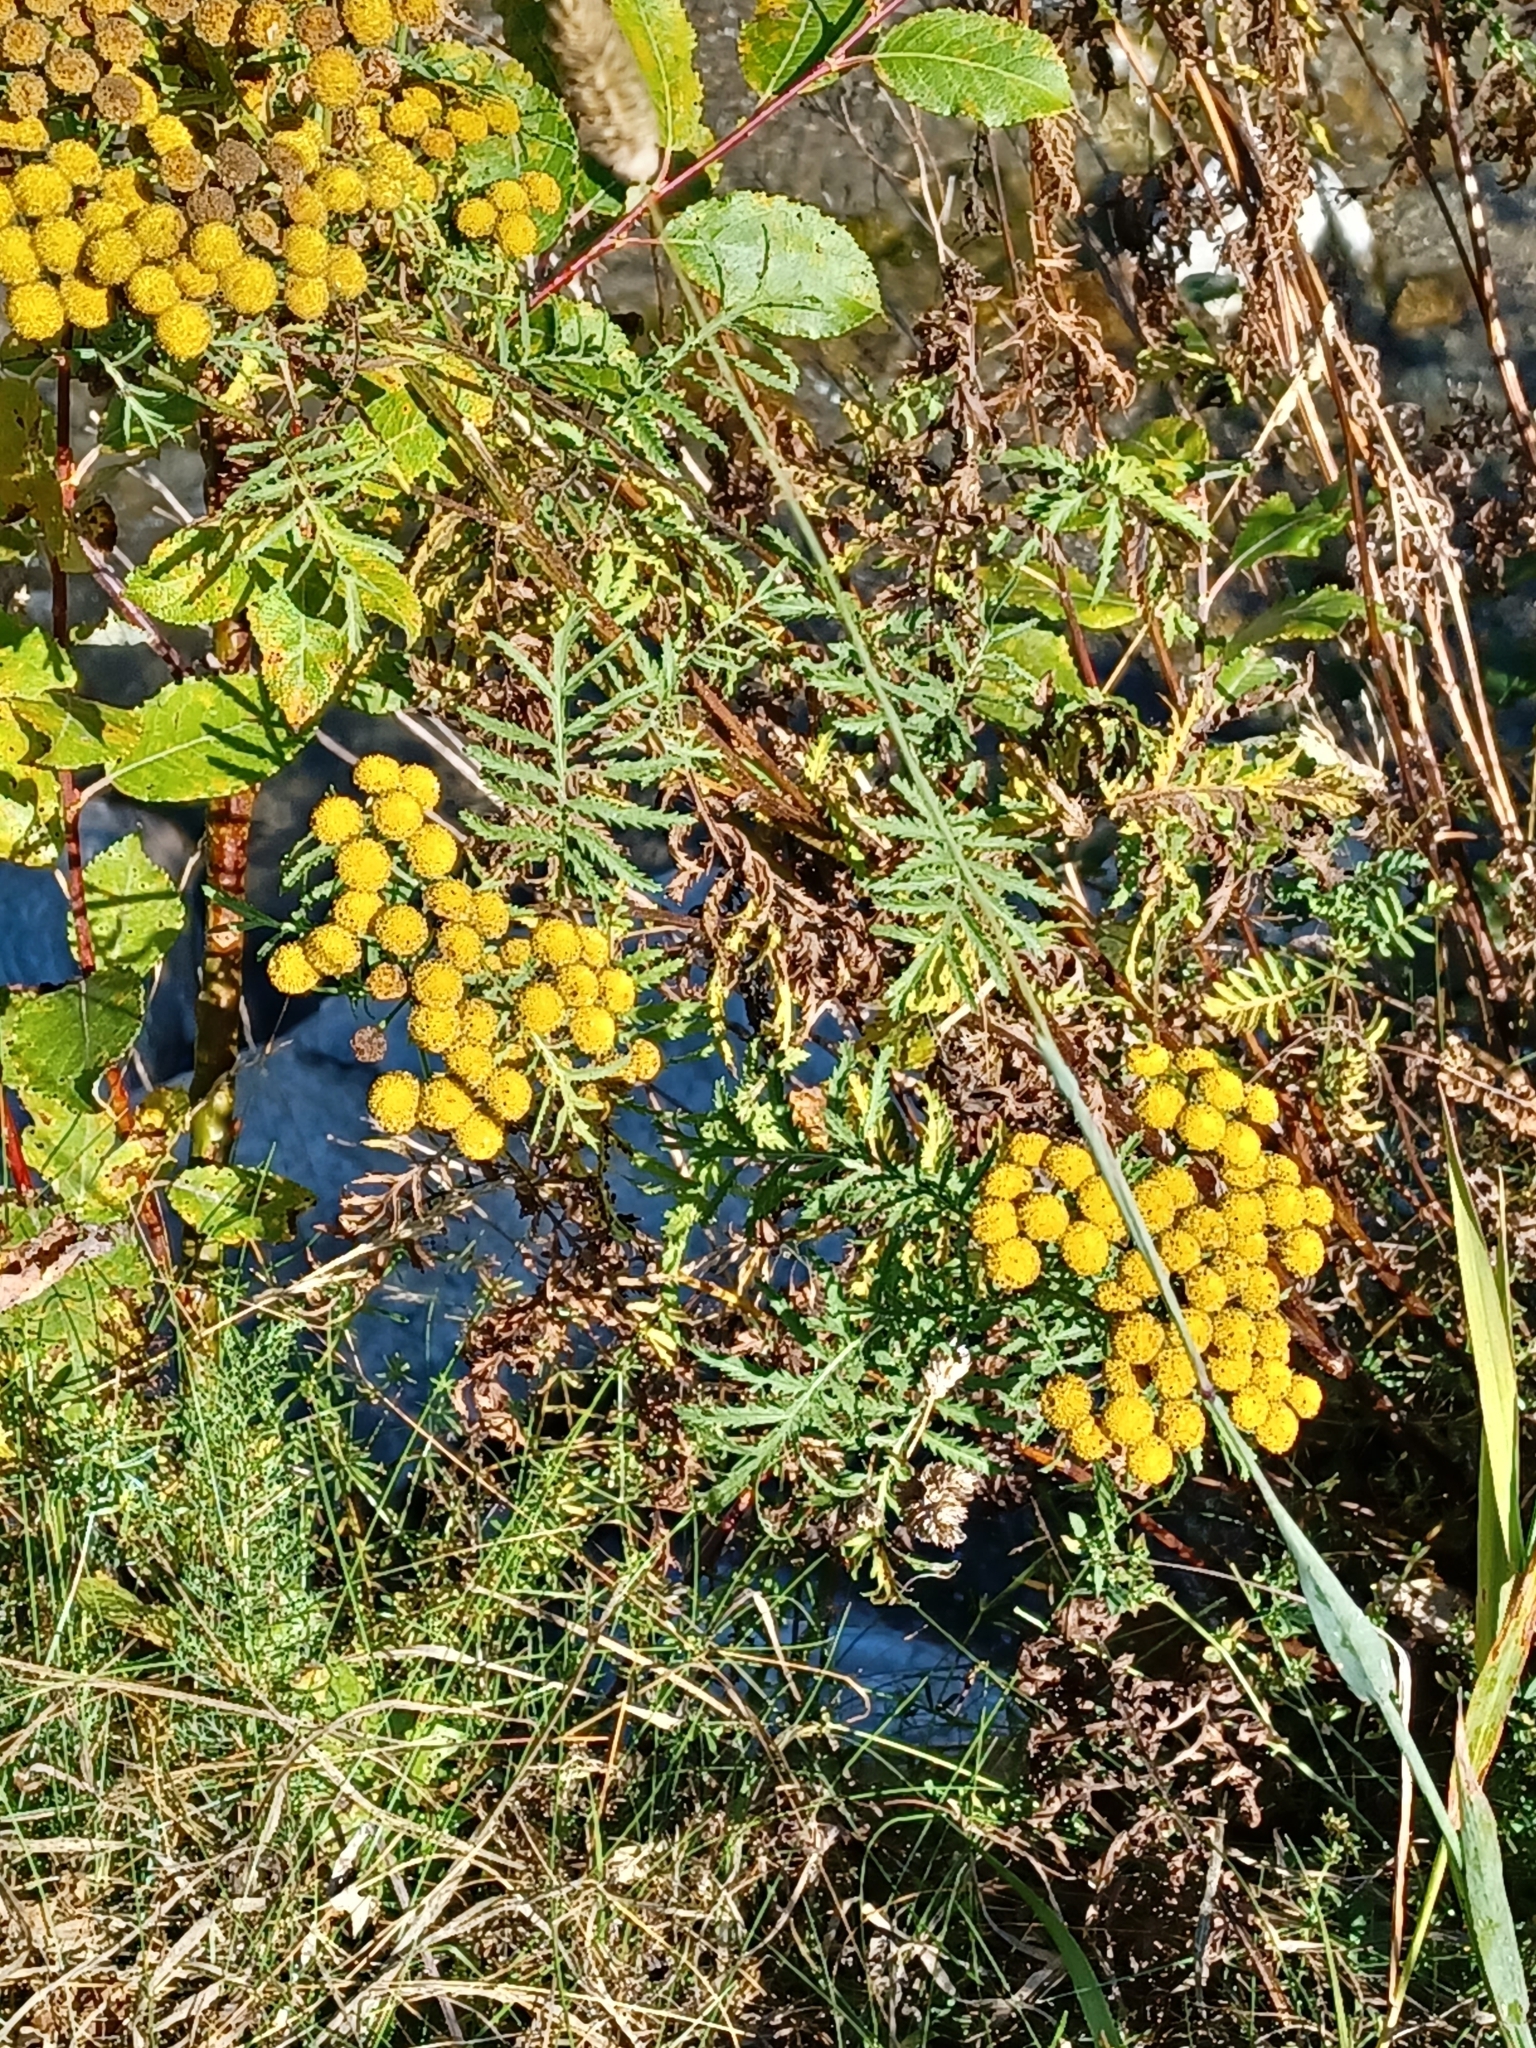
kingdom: Plantae
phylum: Tracheophyta
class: Magnoliopsida
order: Asterales
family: Asteraceae
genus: Tanacetum
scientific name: Tanacetum vulgare
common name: Common tansy
